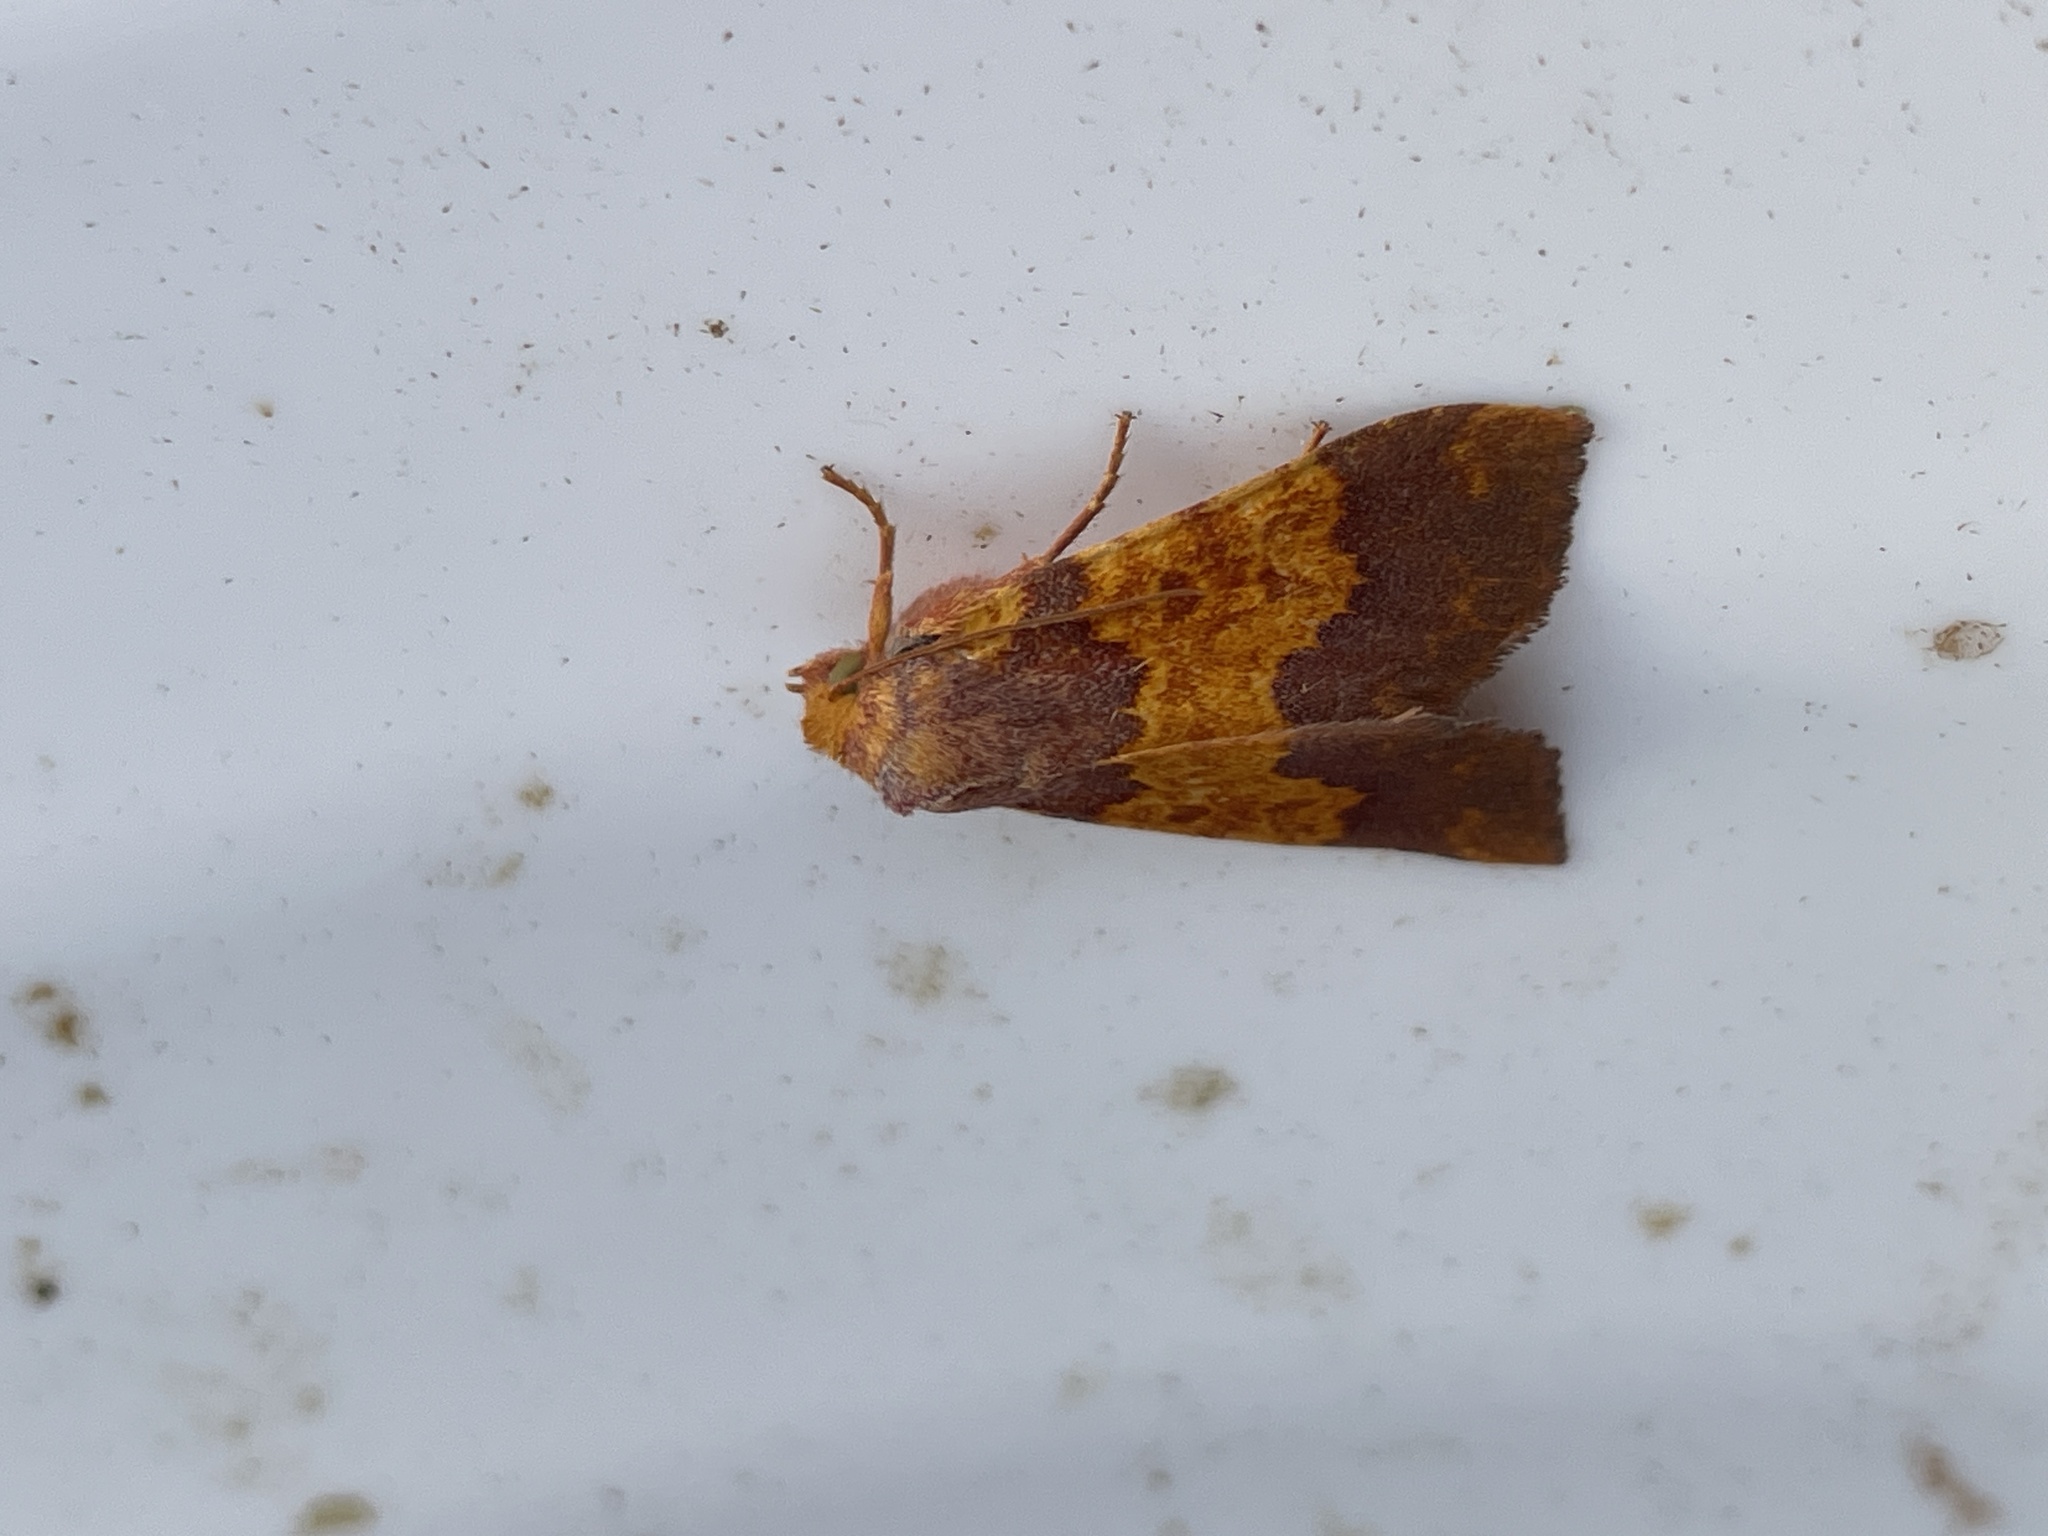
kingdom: Animalia
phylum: Arthropoda
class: Insecta
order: Lepidoptera
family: Noctuidae
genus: Tiliacea
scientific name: Tiliacea aurago
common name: Barred sallow
